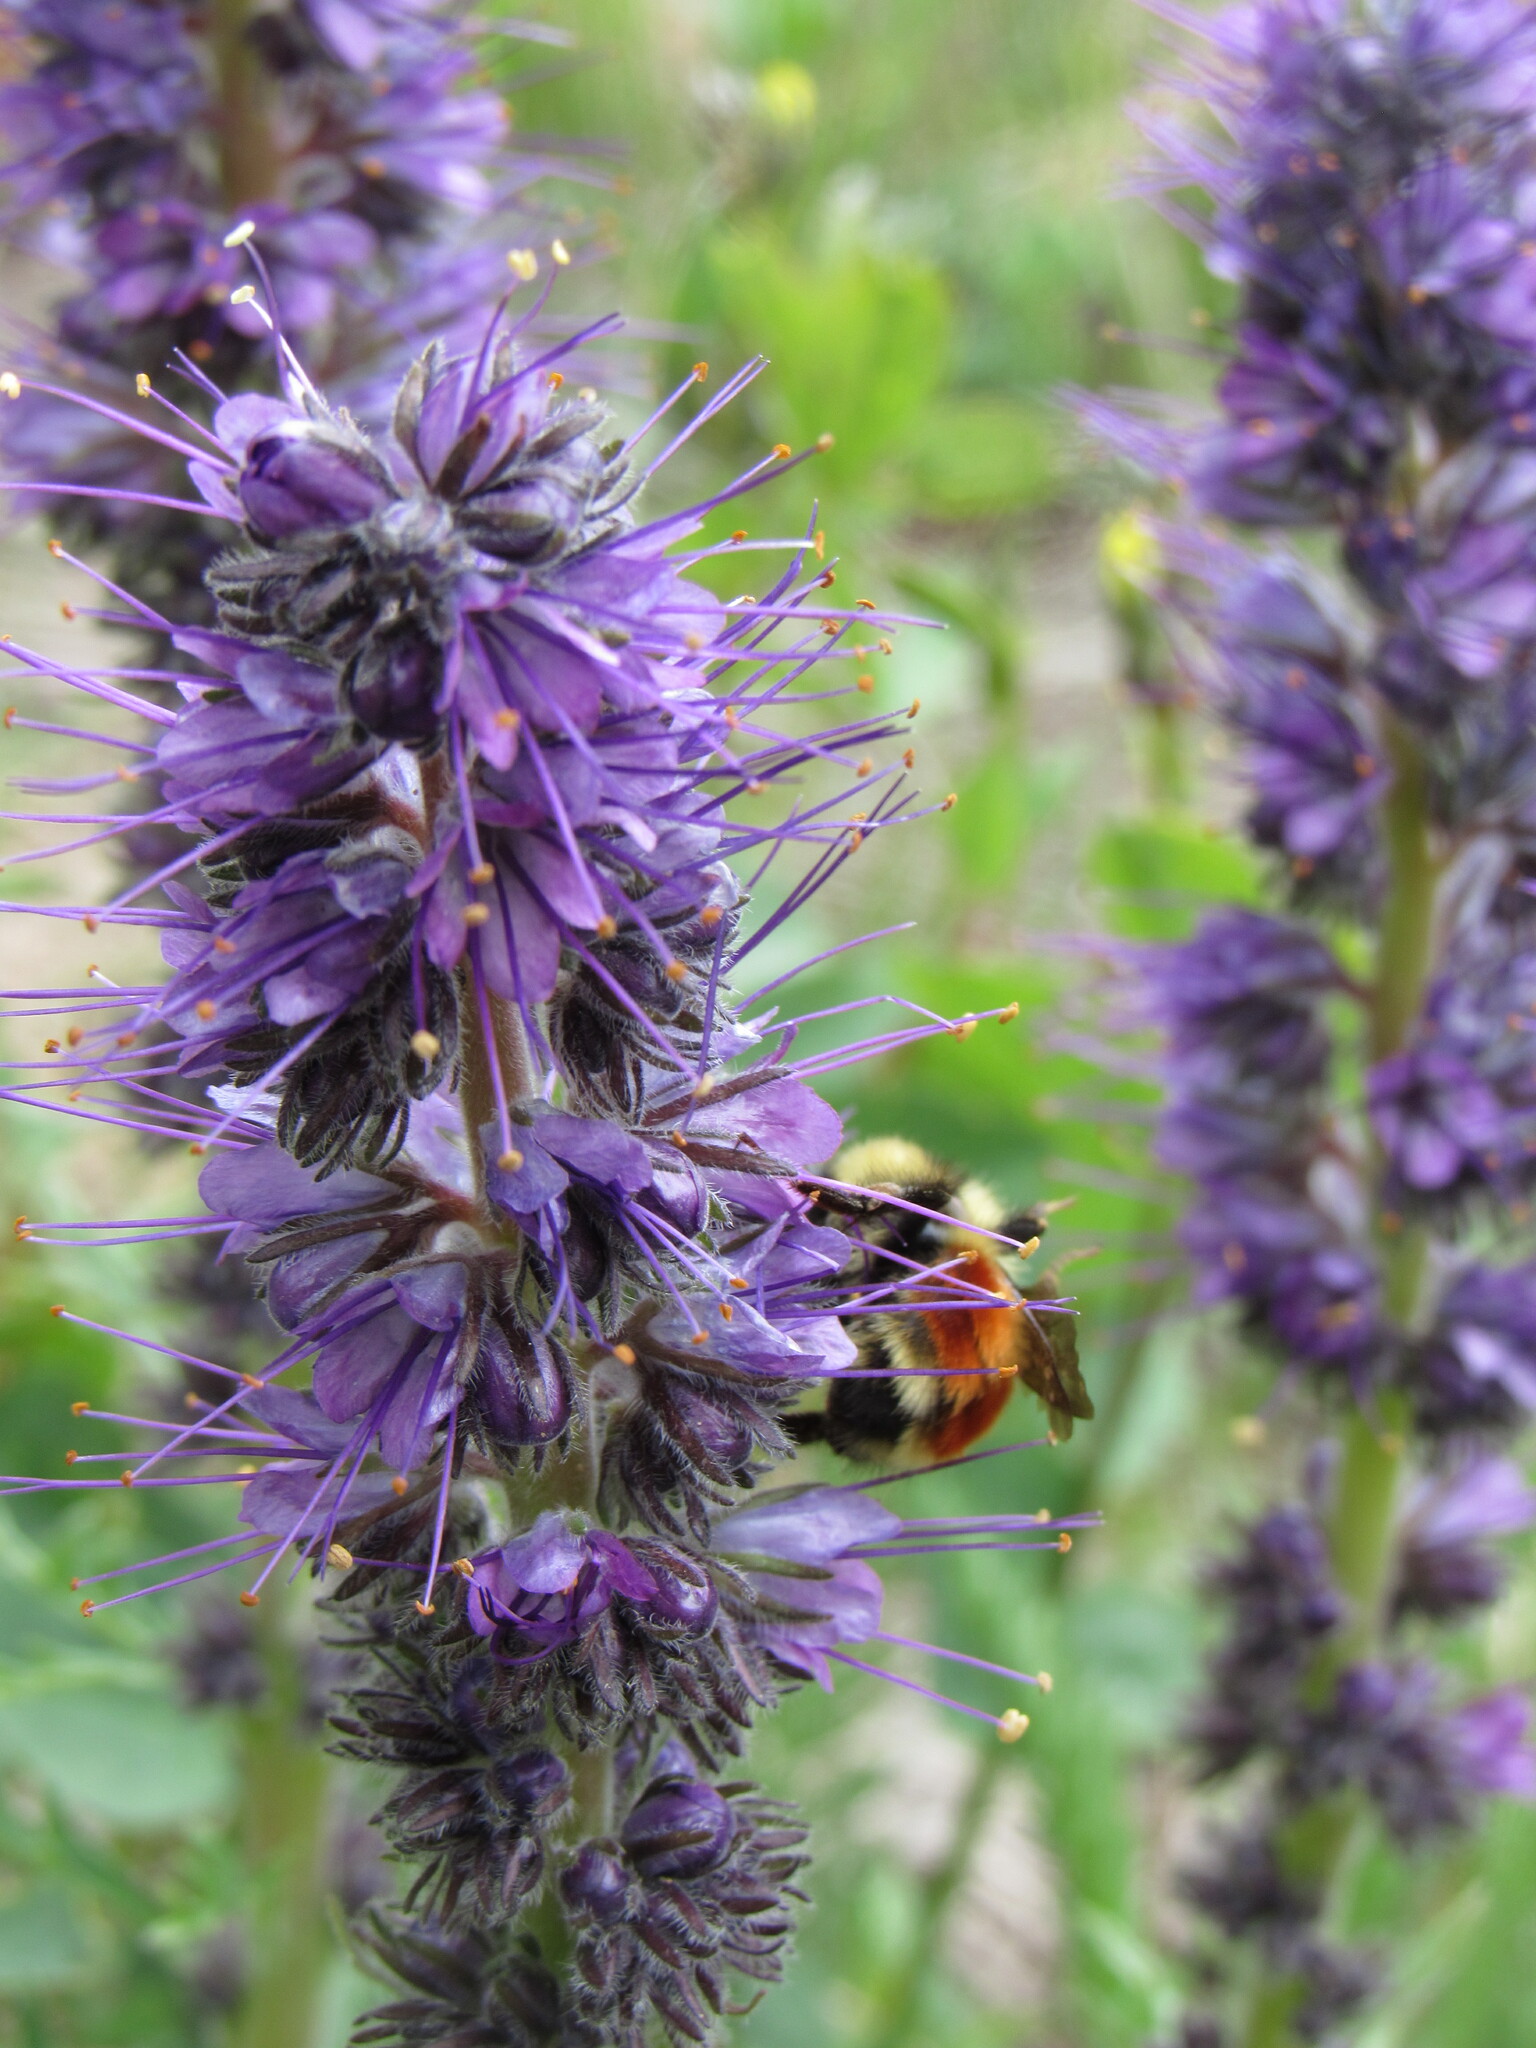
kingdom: Animalia
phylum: Arthropoda
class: Insecta
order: Hymenoptera
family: Apidae
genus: Bombus
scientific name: Bombus huntii
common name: Hunt bumble bee
